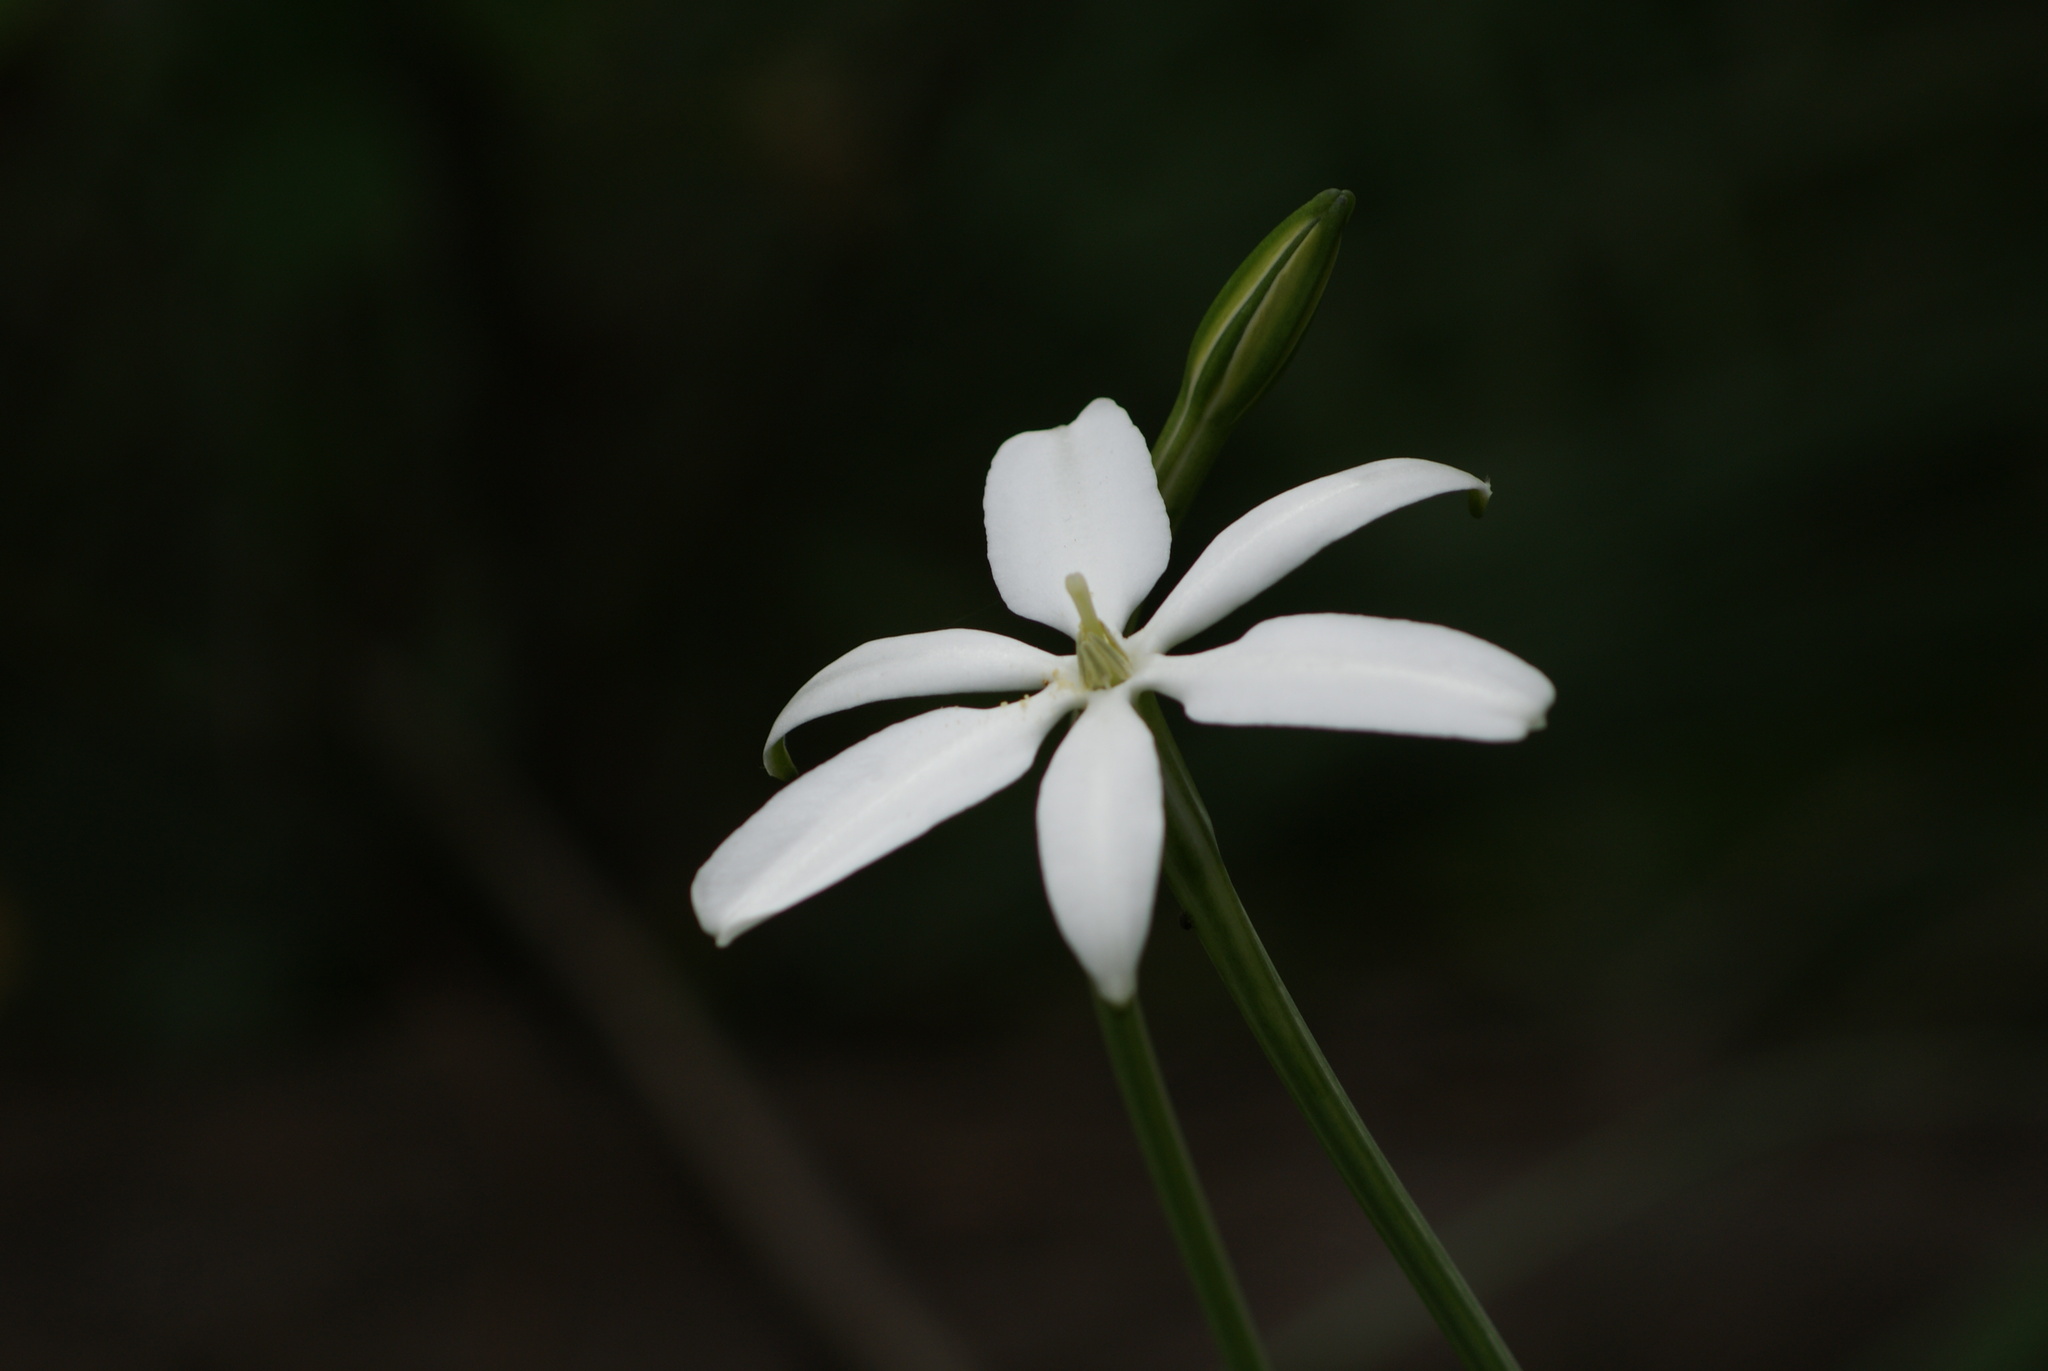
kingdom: Plantae
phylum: Tracheophyta
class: Liliopsida
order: Asparagales
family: Asparagaceae
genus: Milla
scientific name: Milla biflora
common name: Mexican-star
